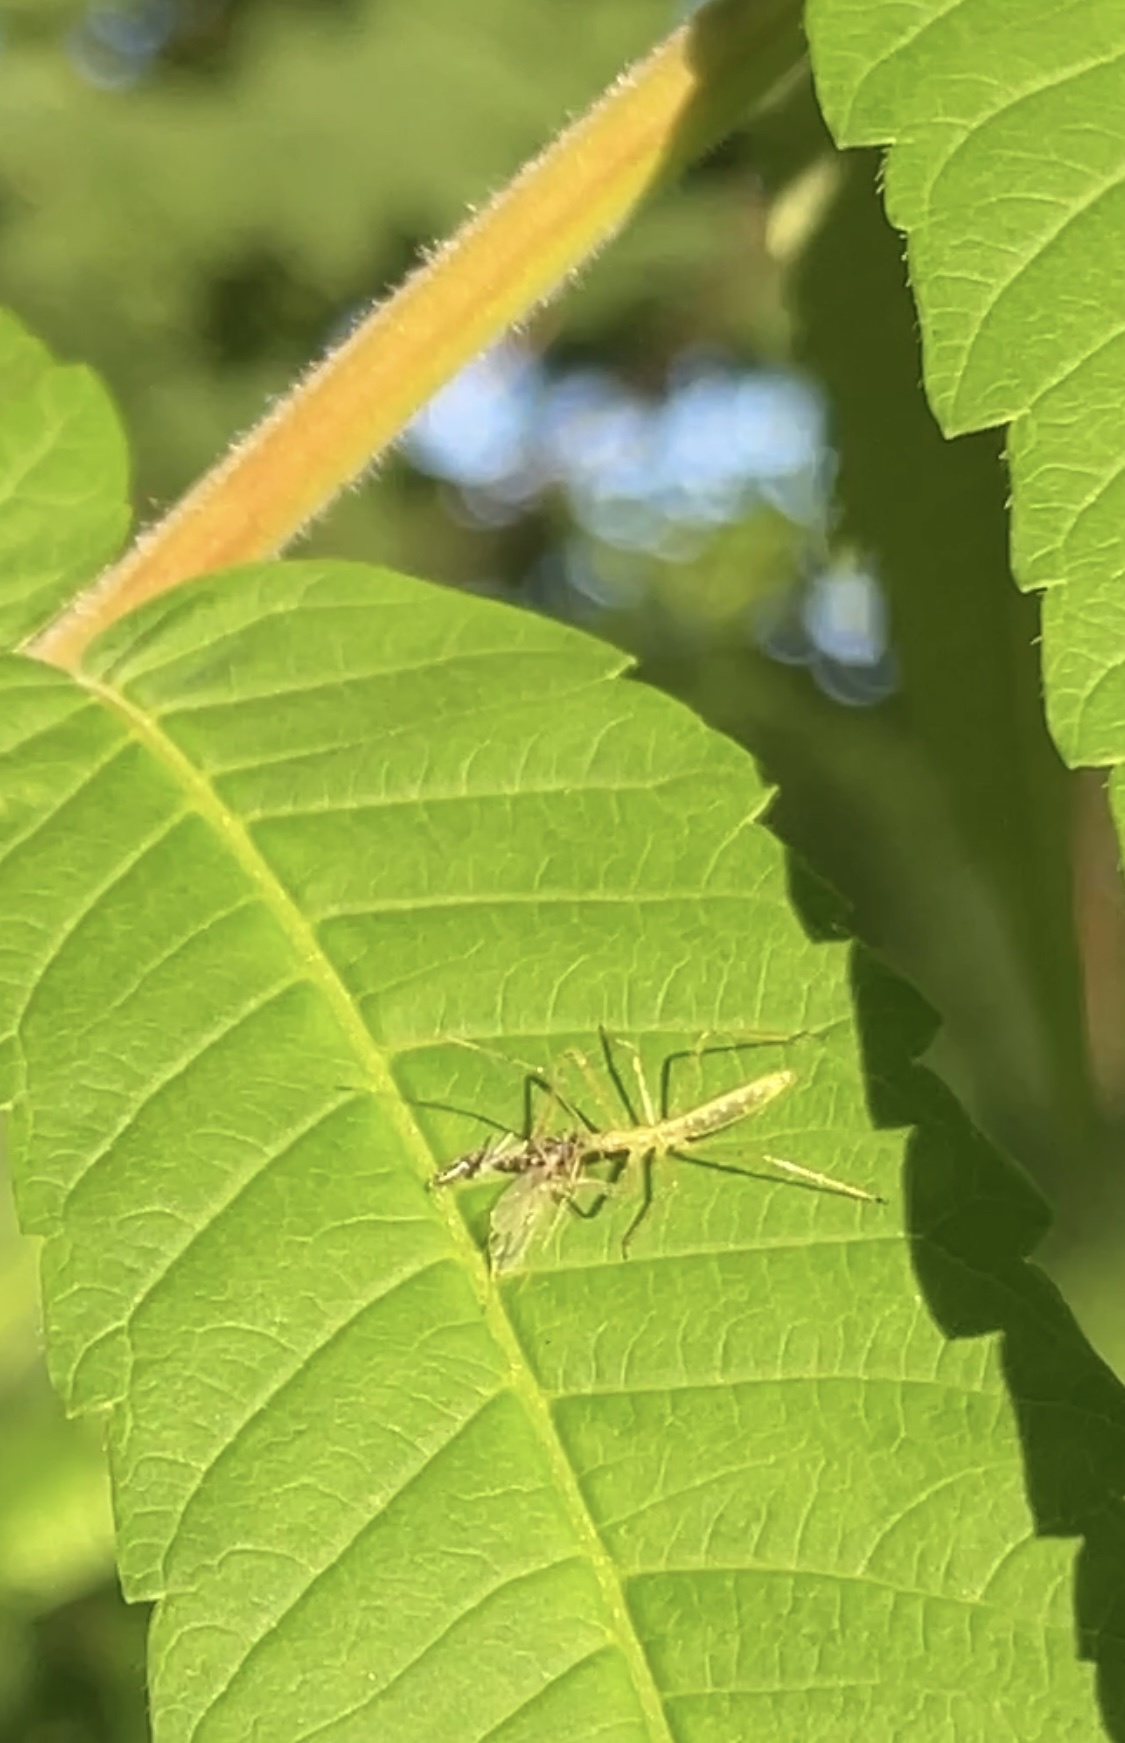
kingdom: Animalia
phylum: Arthropoda
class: Insecta
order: Hemiptera
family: Reduviidae
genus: Zelus
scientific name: Zelus luridus
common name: Pale green assassin bug
